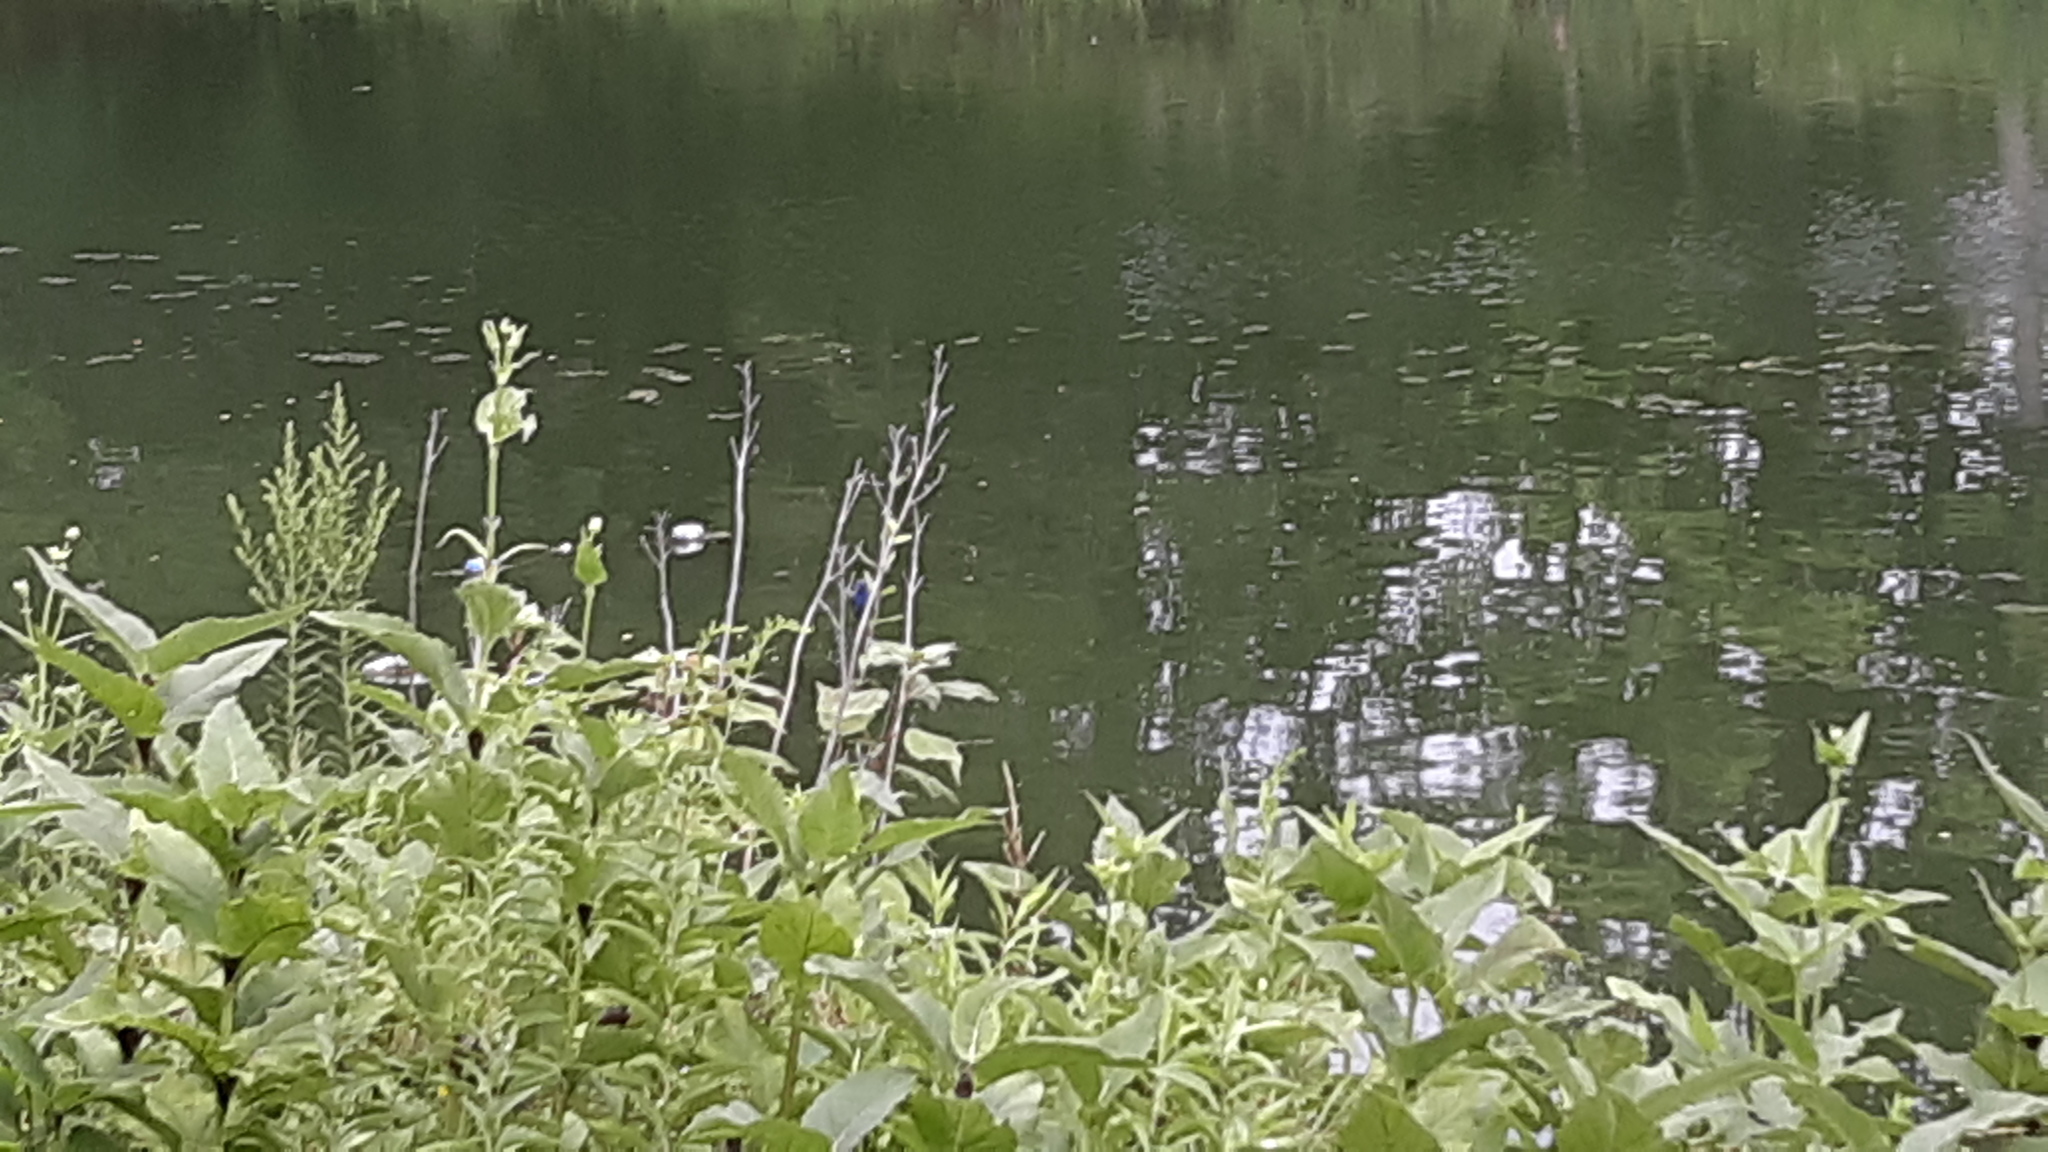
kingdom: Animalia
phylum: Chordata
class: Aves
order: Passeriformes
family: Cardinalidae
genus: Passerina
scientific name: Passerina cyanea
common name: Indigo bunting
